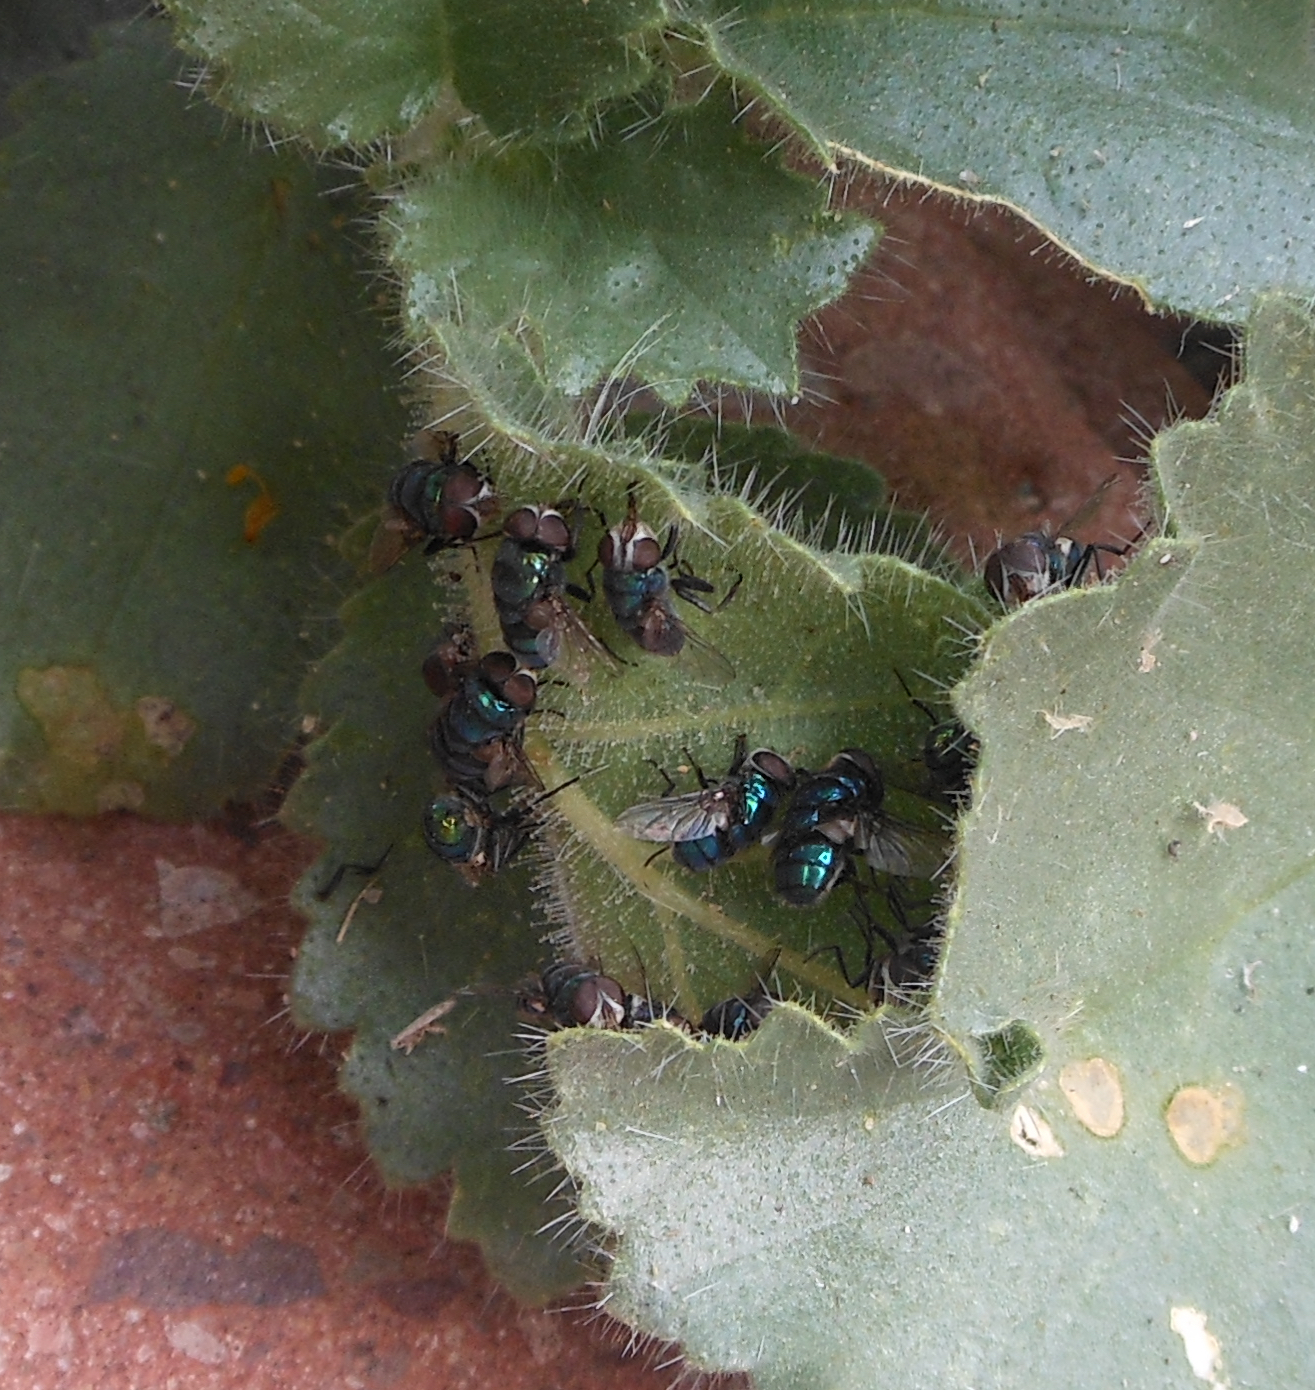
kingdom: Plantae
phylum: Tracheophyta
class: Magnoliopsida
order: Cornales
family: Loasaceae
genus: Eucnide
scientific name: Eucnide urens
